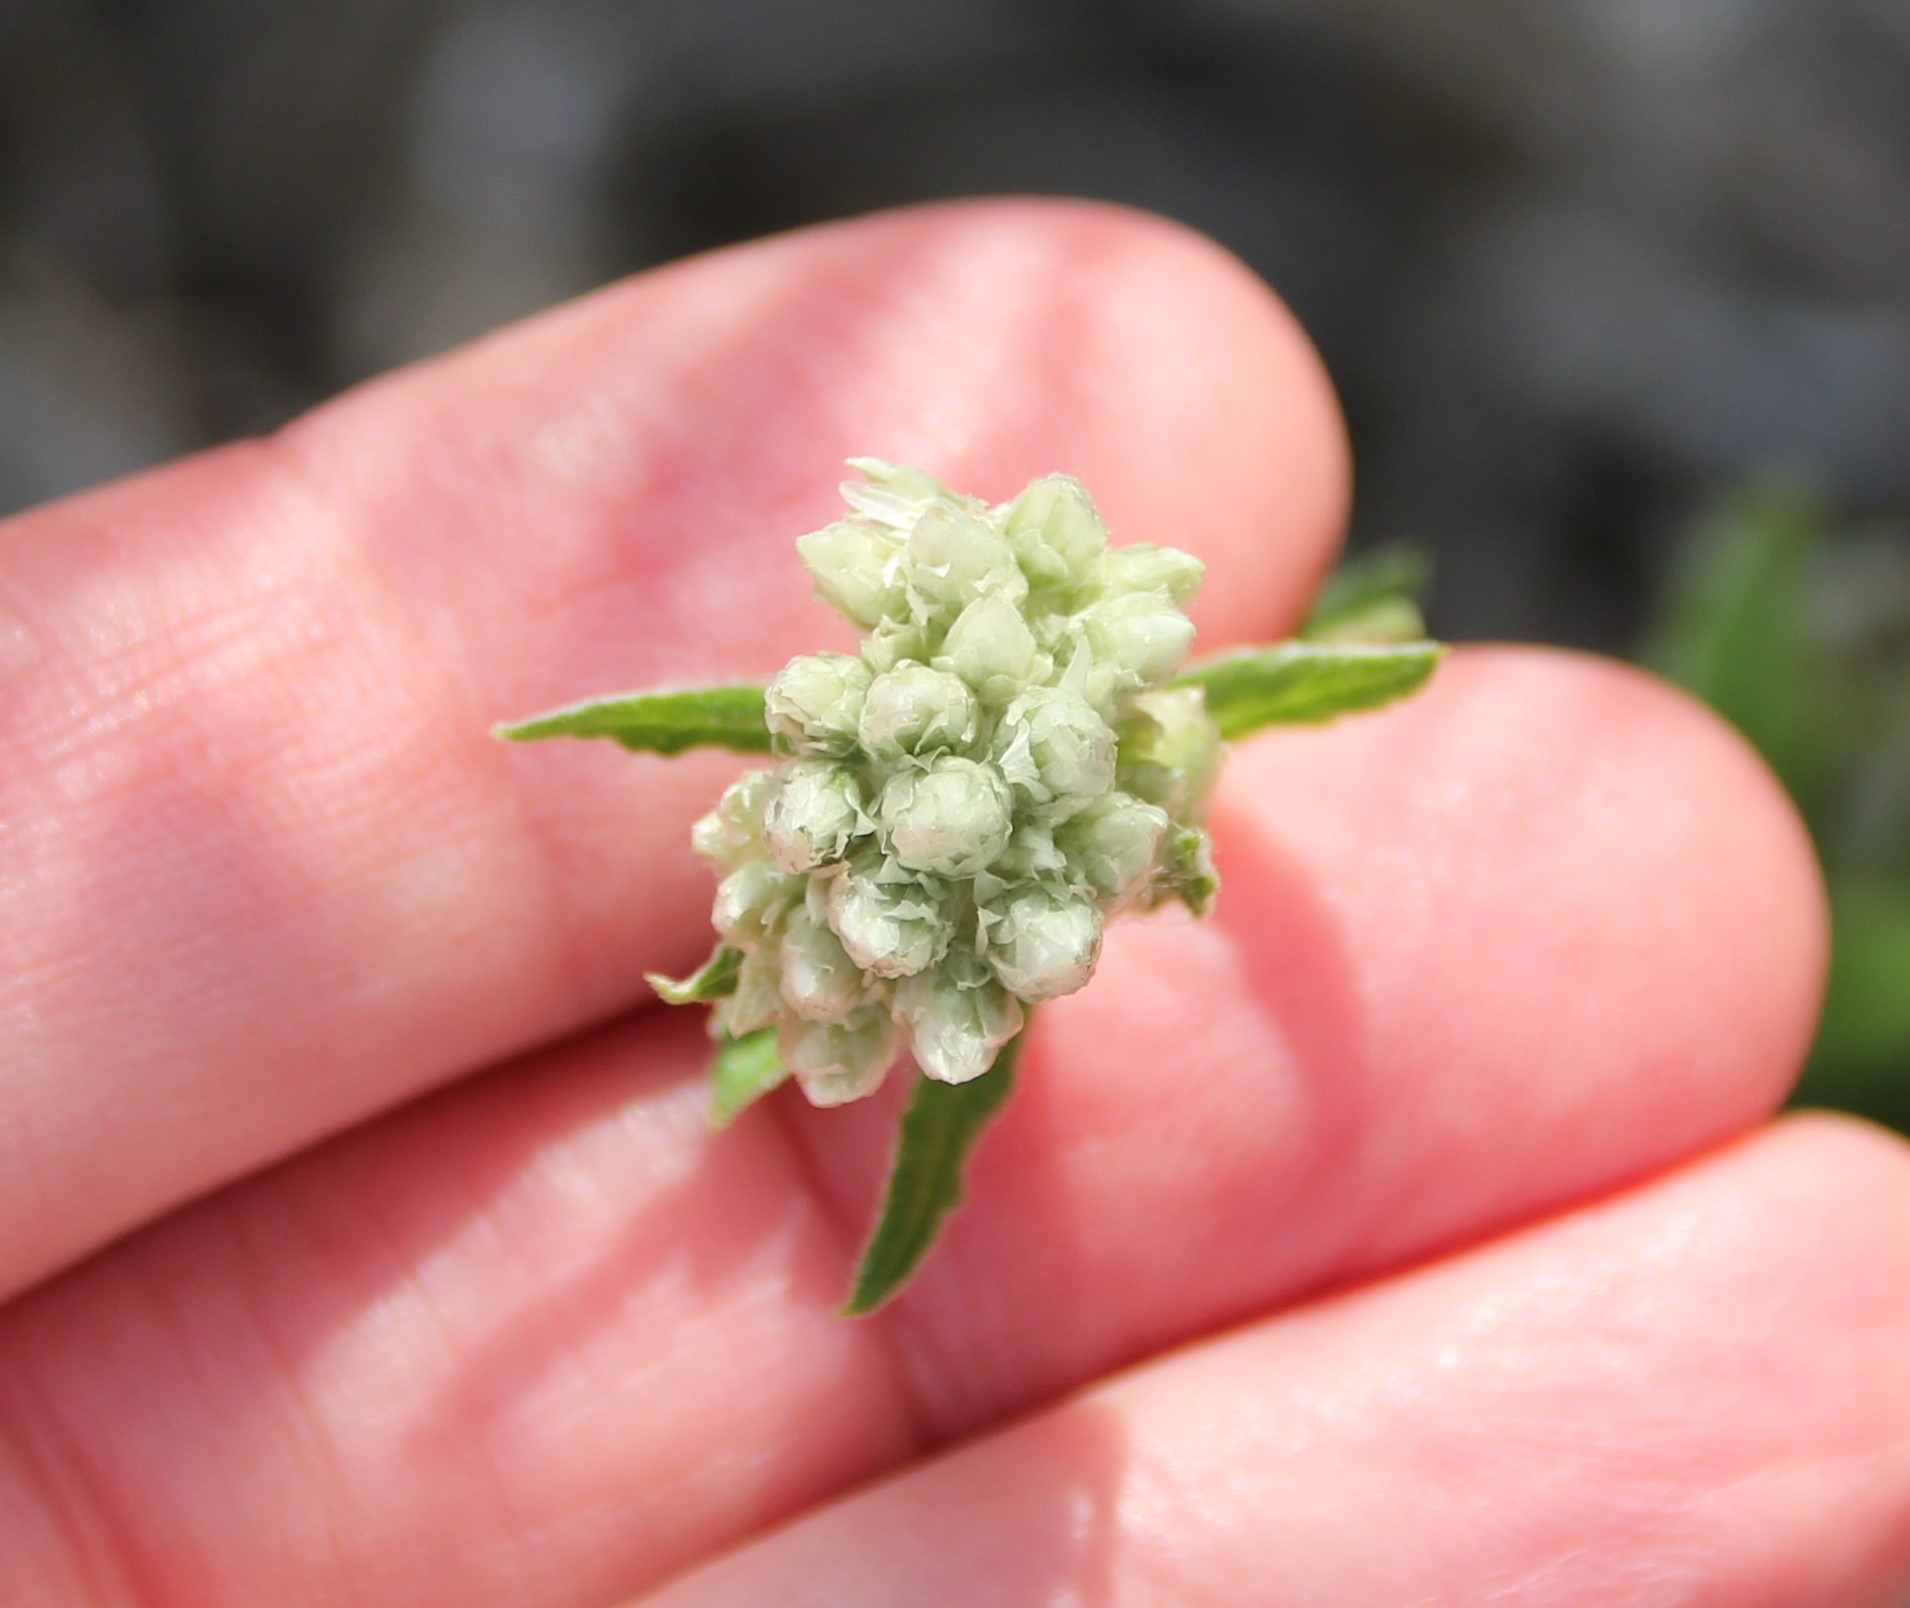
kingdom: Plantae
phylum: Tracheophyta
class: Magnoliopsida
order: Asterales
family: Asteraceae
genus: Pseudognaphalium
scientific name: Pseudognaphalium biolettii
